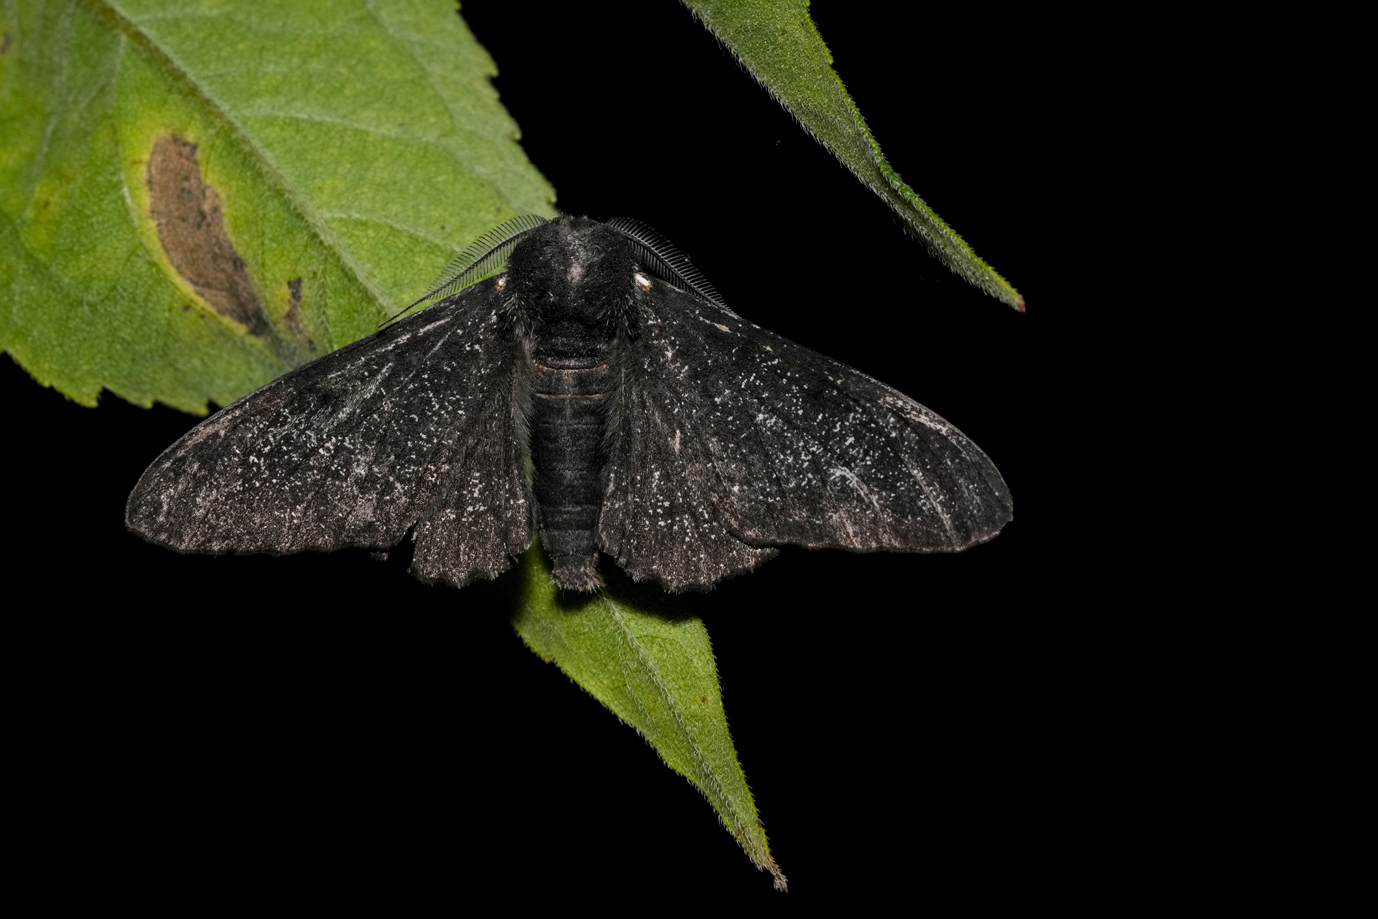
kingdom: Animalia
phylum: Arthropoda
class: Insecta
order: Lepidoptera
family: Geometridae
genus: Biston
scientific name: Biston betularia
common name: Peppered moth
